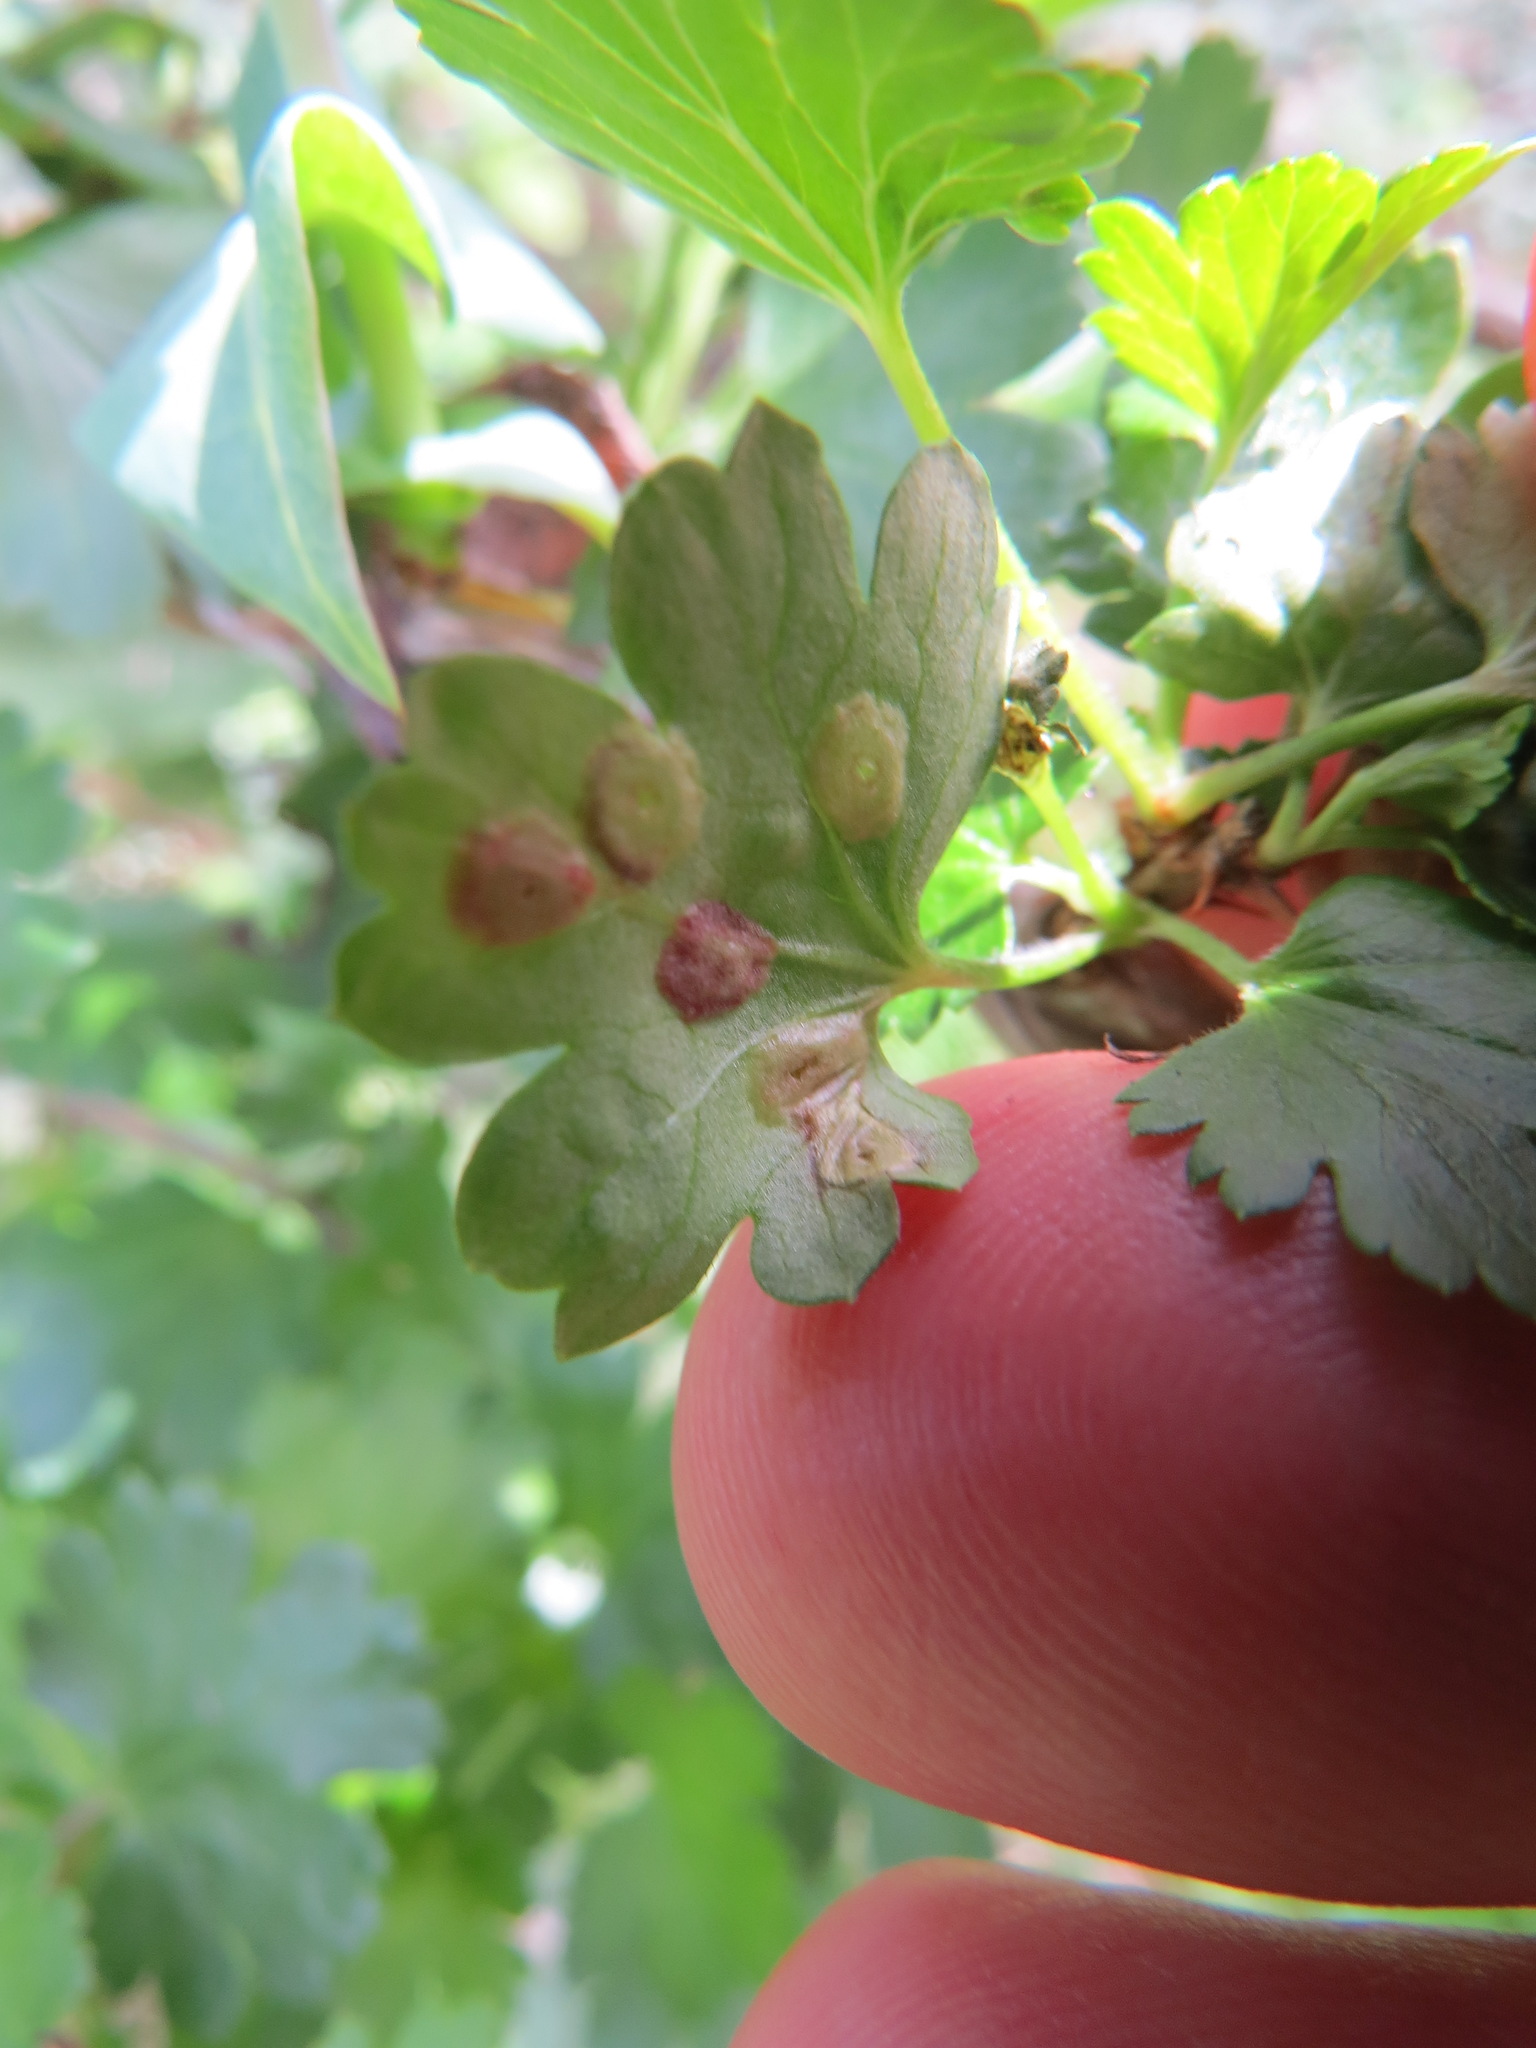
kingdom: Animalia
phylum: Arthropoda
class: Insecta
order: Diptera
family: Cecidomyiidae
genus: Ribesia
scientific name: Ribesia sarae
